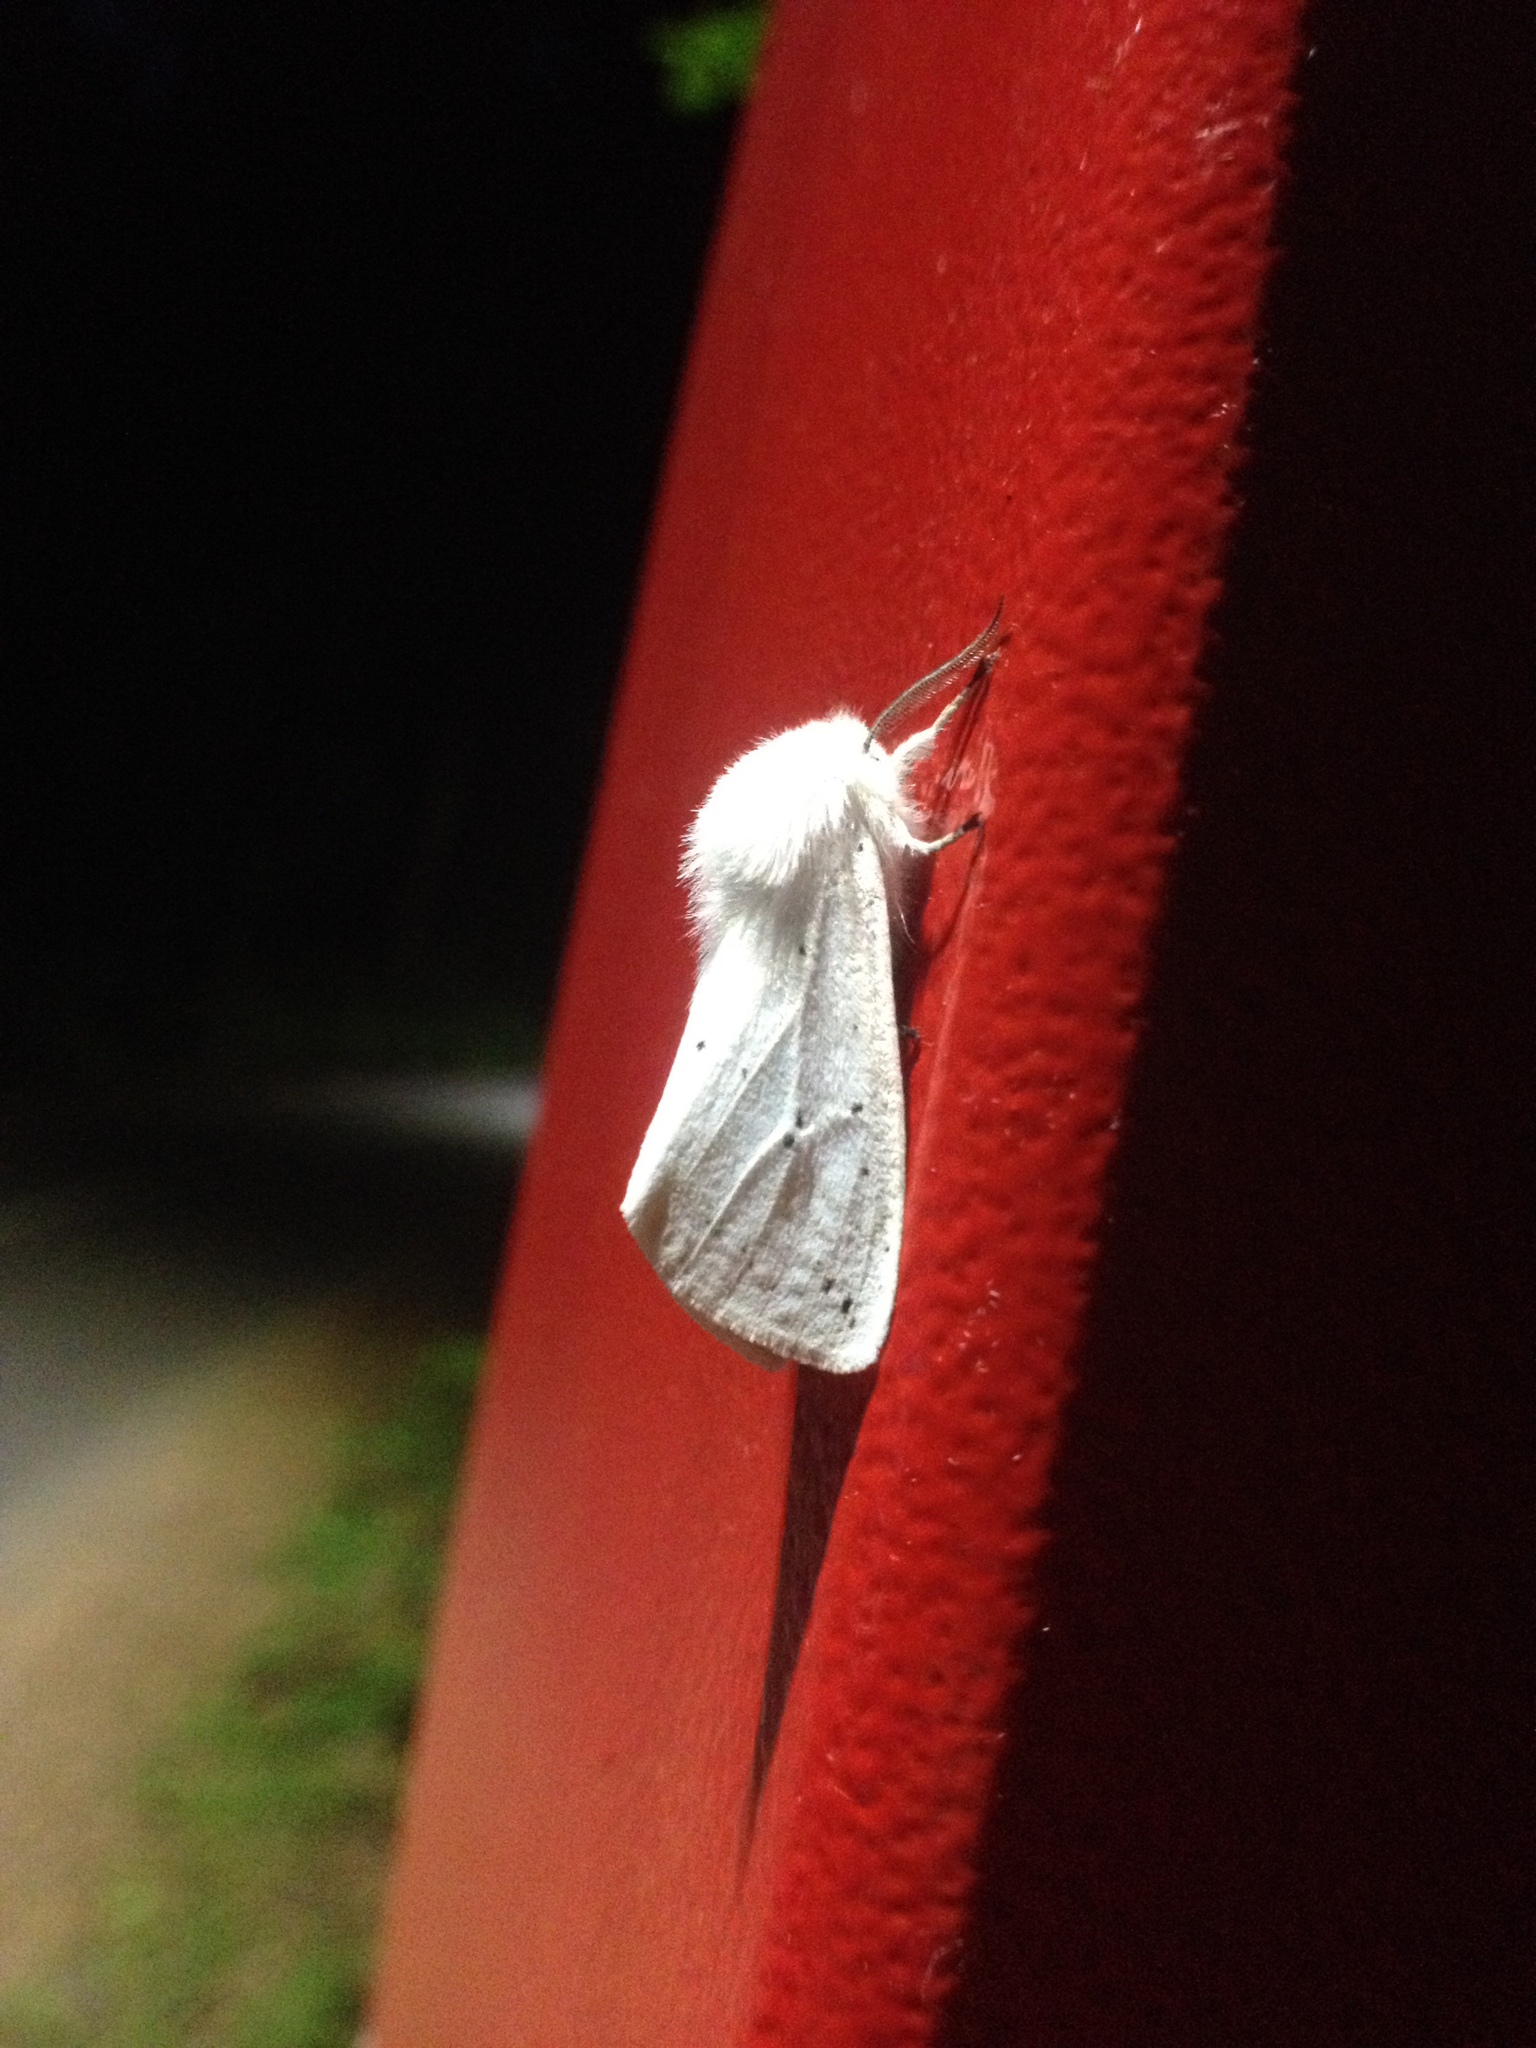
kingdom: Animalia
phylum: Arthropoda
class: Insecta
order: Lepidoptera
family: Erebidae
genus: Spilosoma
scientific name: Spilosoma lubricipeda
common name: White ermine
